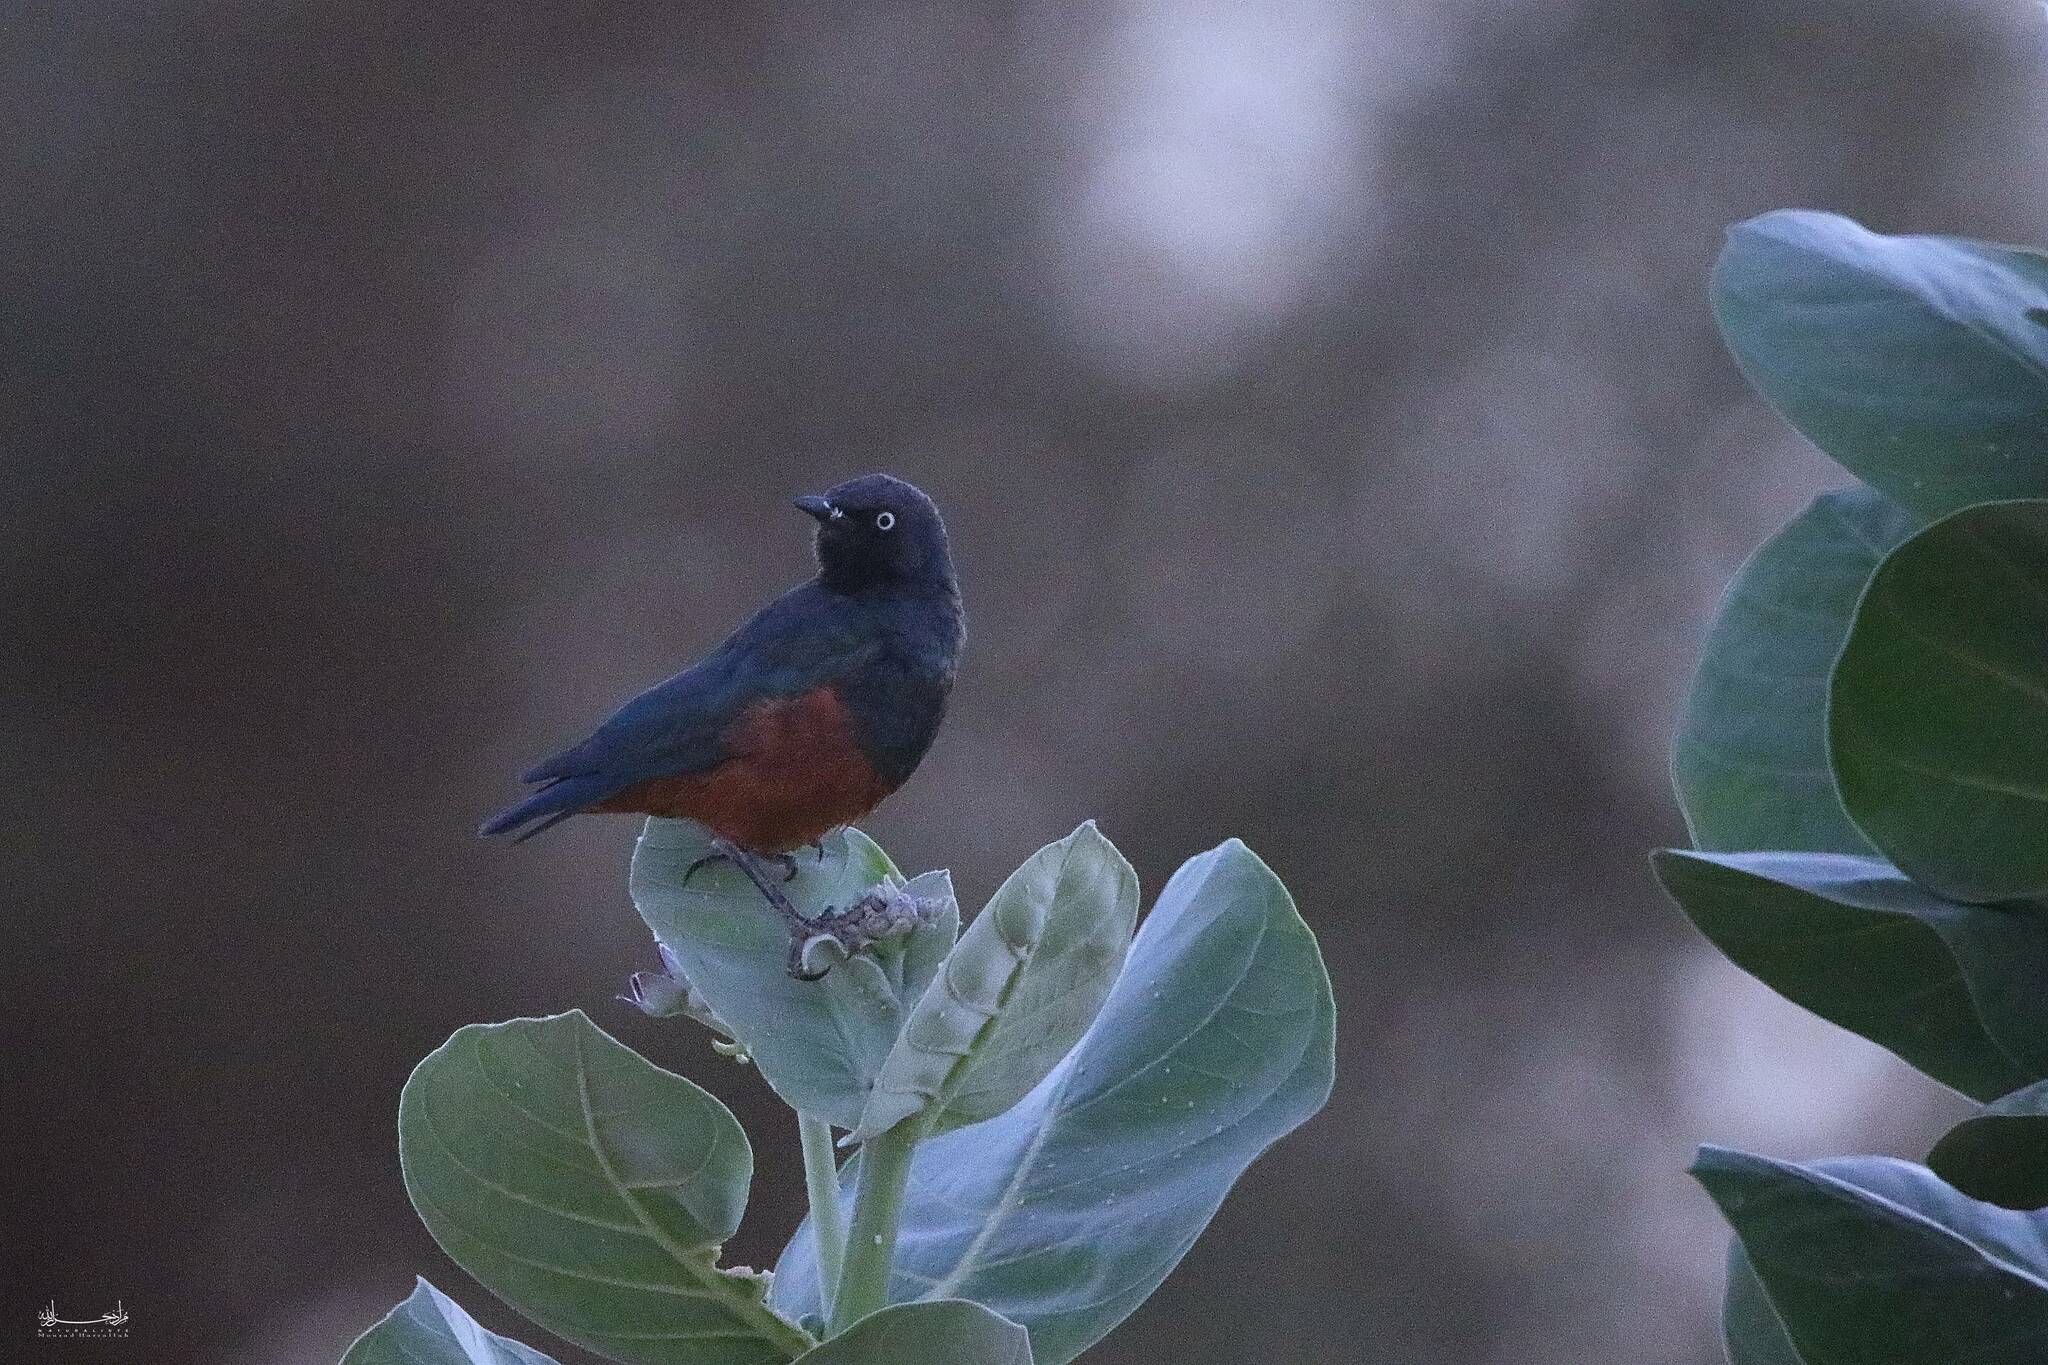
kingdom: Animalia
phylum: Chordata
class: Aves
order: Passeriformes
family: Sturnidae
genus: Lamprotornis
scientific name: Lamprotornis pulcher
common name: Chestnut-bellied starling
